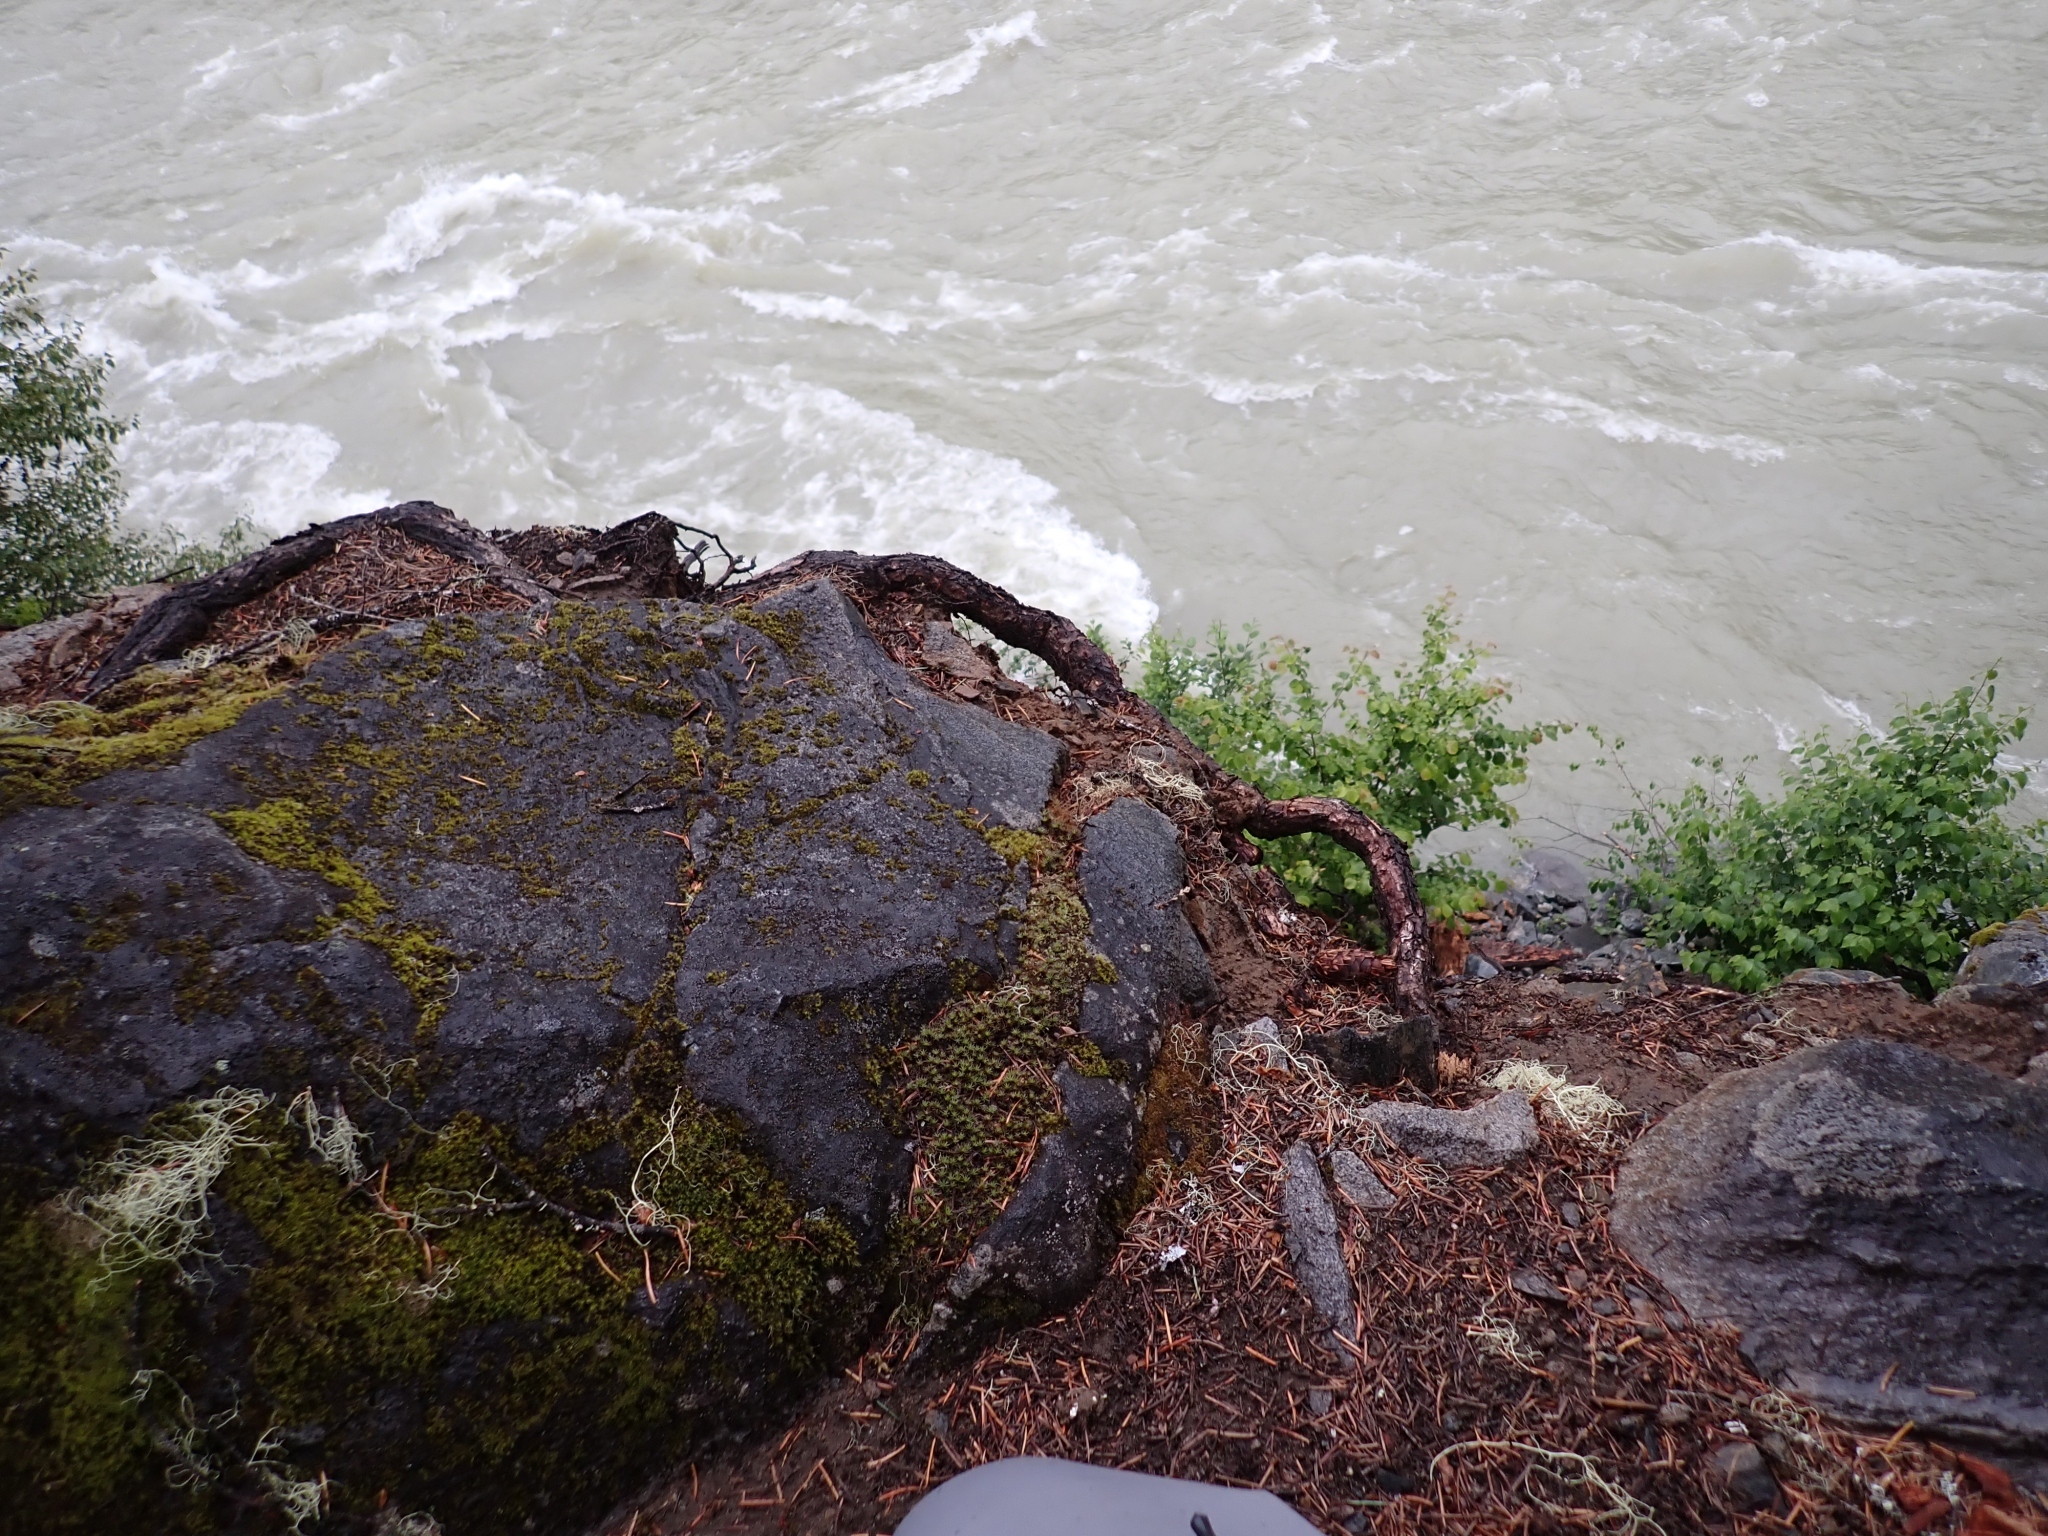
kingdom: Plantae
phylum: Bryophyta
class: Polytrichopsida
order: Polytrichales
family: Polytrichaceae
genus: Polytrichum
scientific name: Polytrichum piliferum
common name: Bristly haircap
